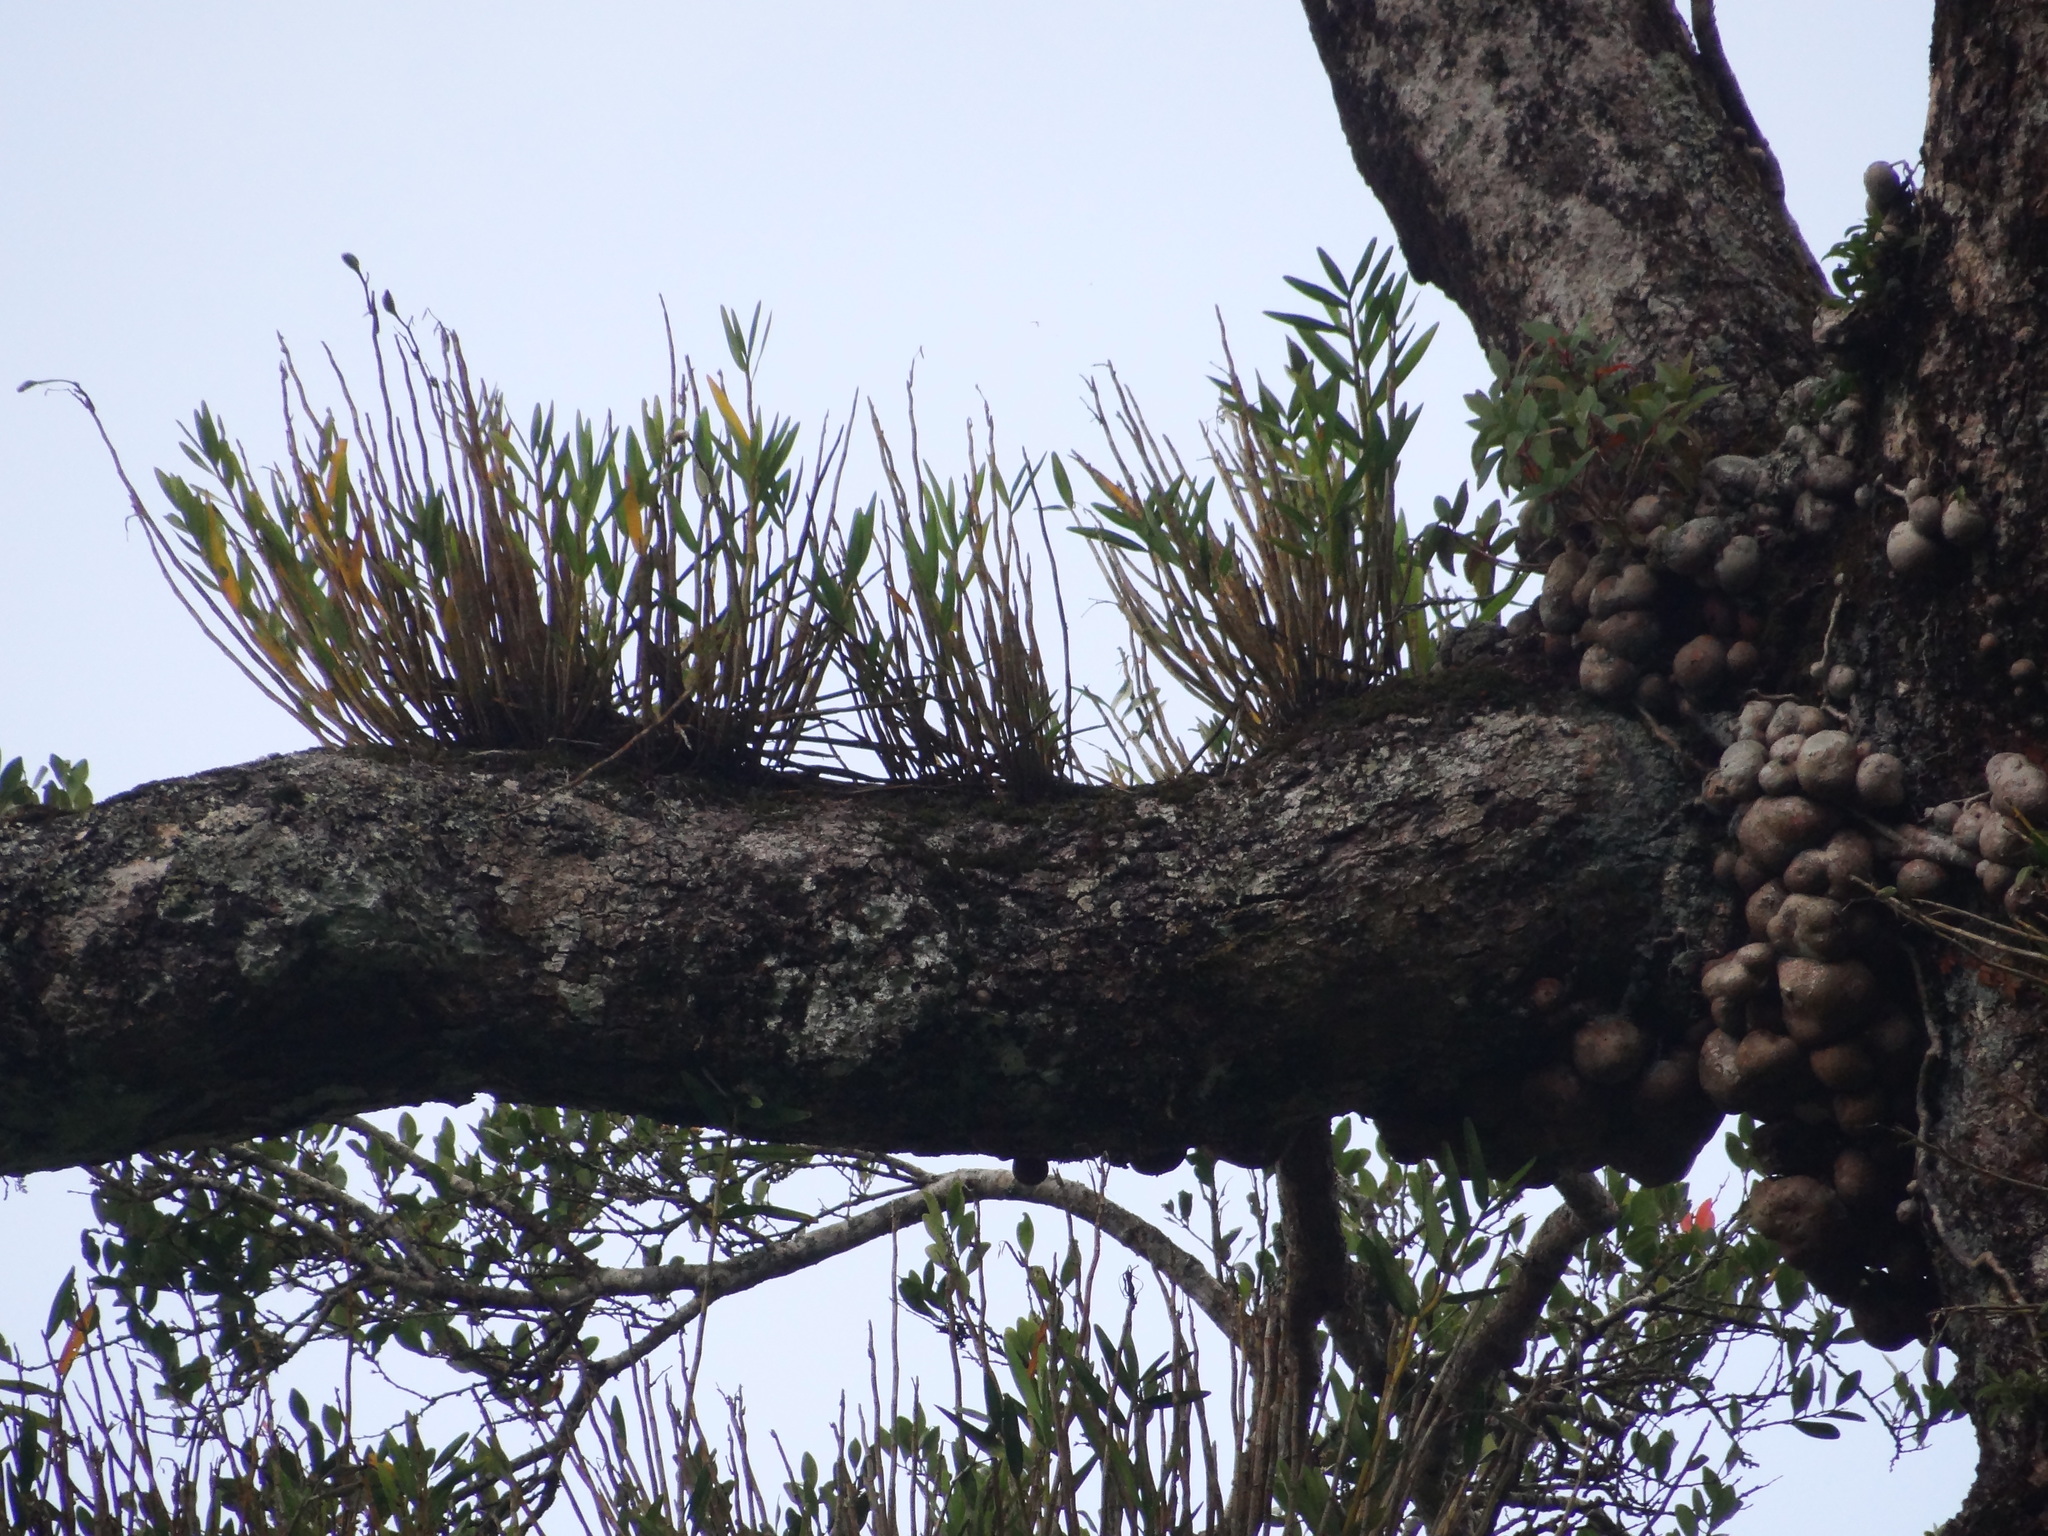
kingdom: Plantae
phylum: Tracheophyta
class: Liliopsida
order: Asparagales
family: Orchidaceae
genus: Dendrobium
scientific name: Dendrobium chryseum
